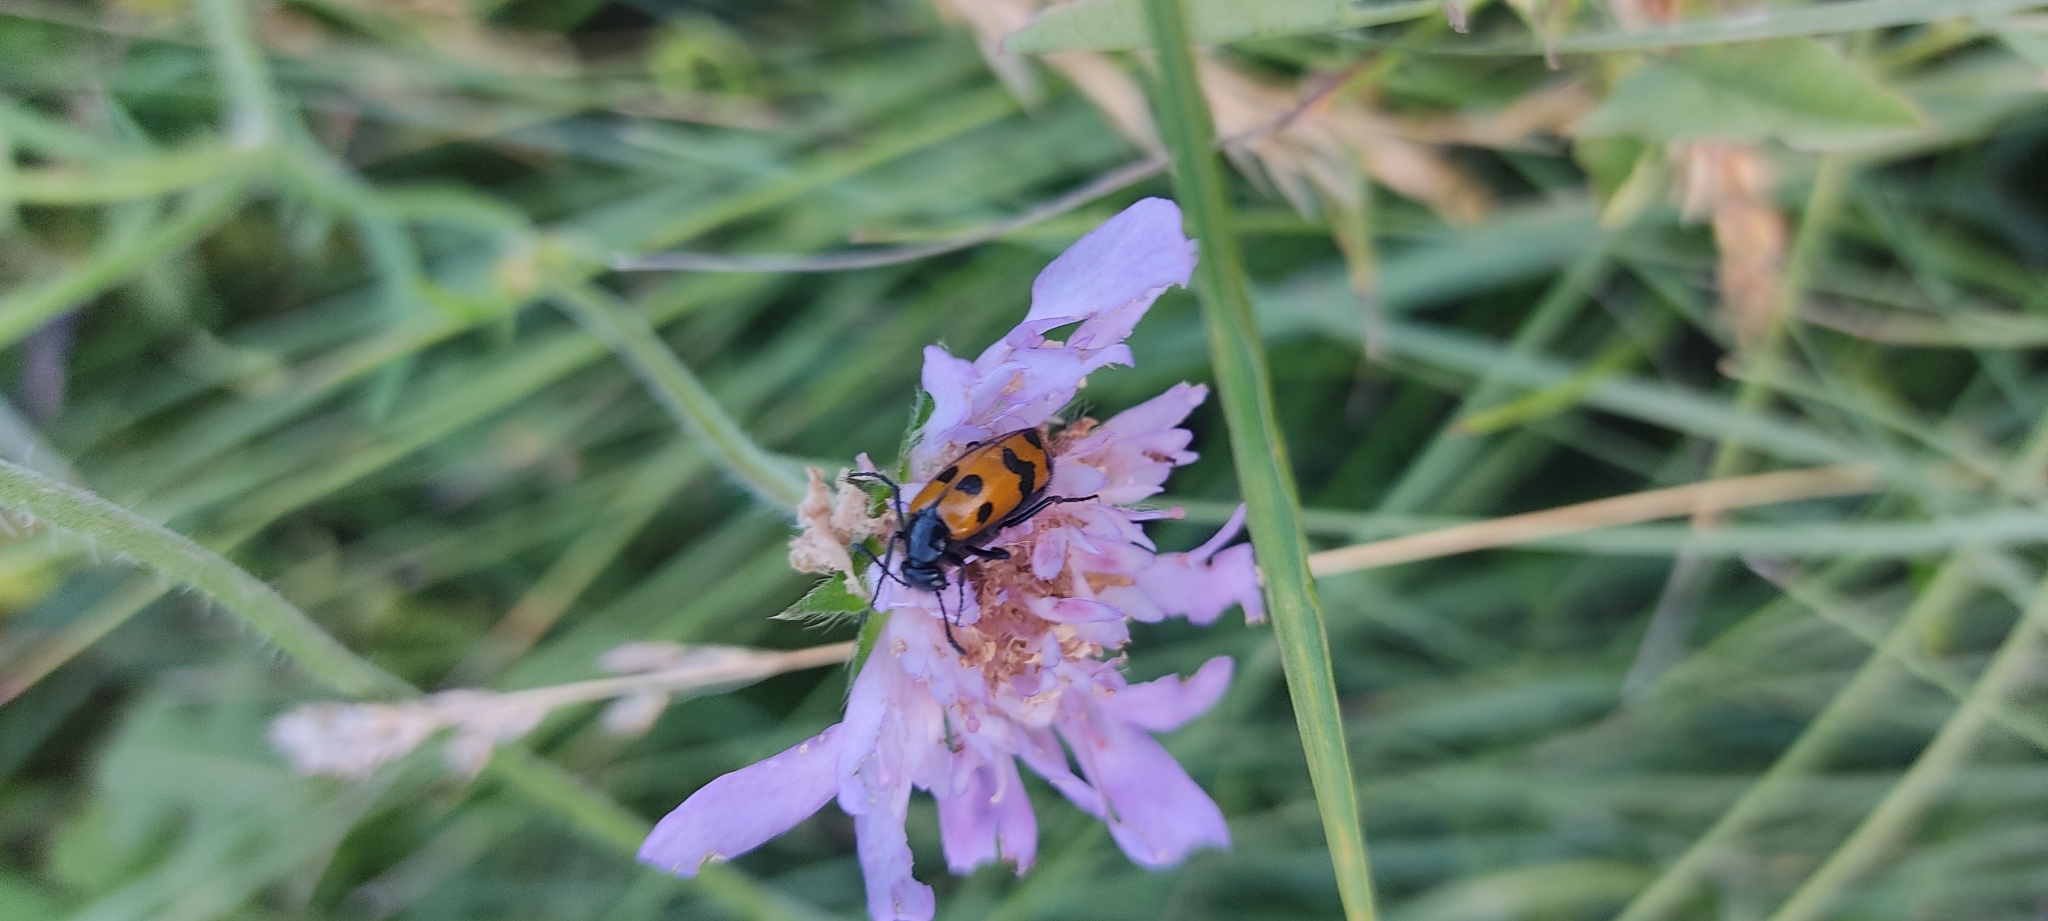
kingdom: Animalia
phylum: Arthropoda
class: Insecta
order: Coleoptera
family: Meloidae
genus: Mylabris
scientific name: Mylabris connata
